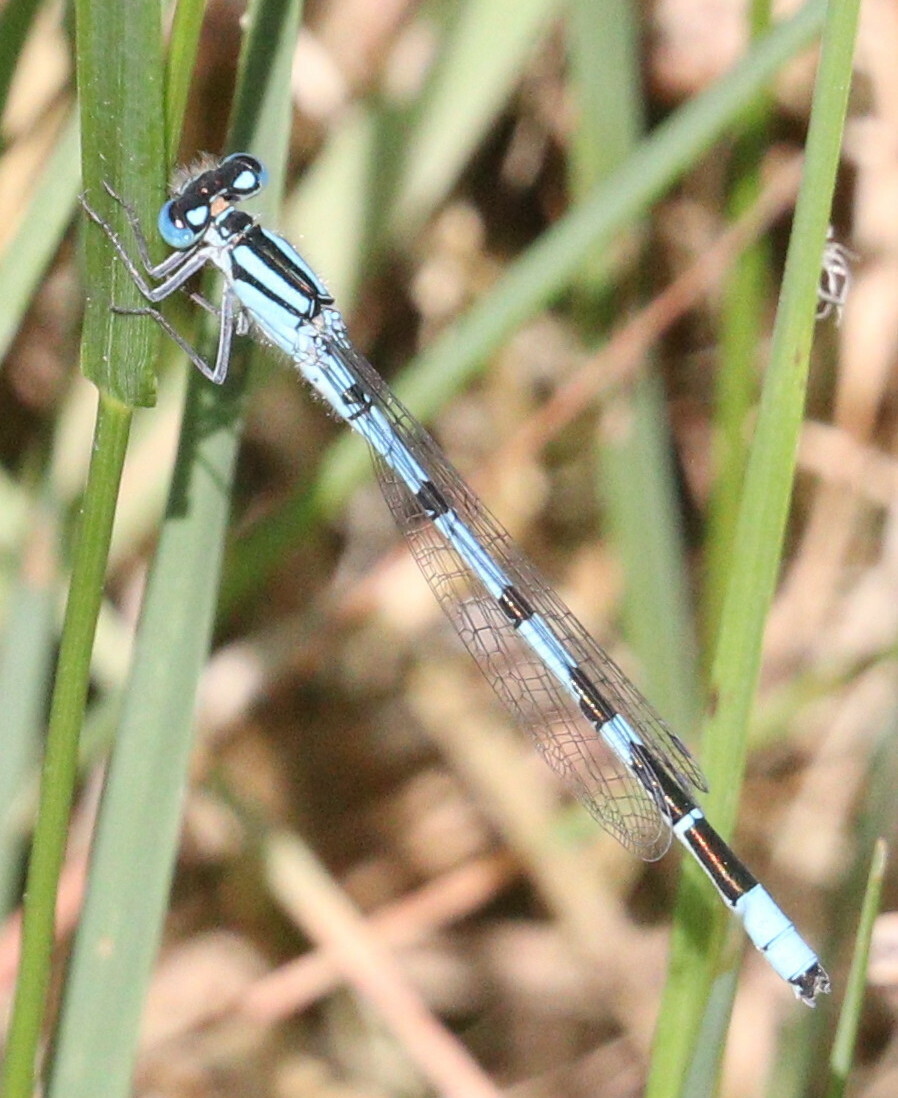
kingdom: Animalia
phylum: Arthropoda
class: Insecta
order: Odonata
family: Coenagrionidae
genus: Enallagma
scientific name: Enallagma cyathigerum
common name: Common blue damselfly
